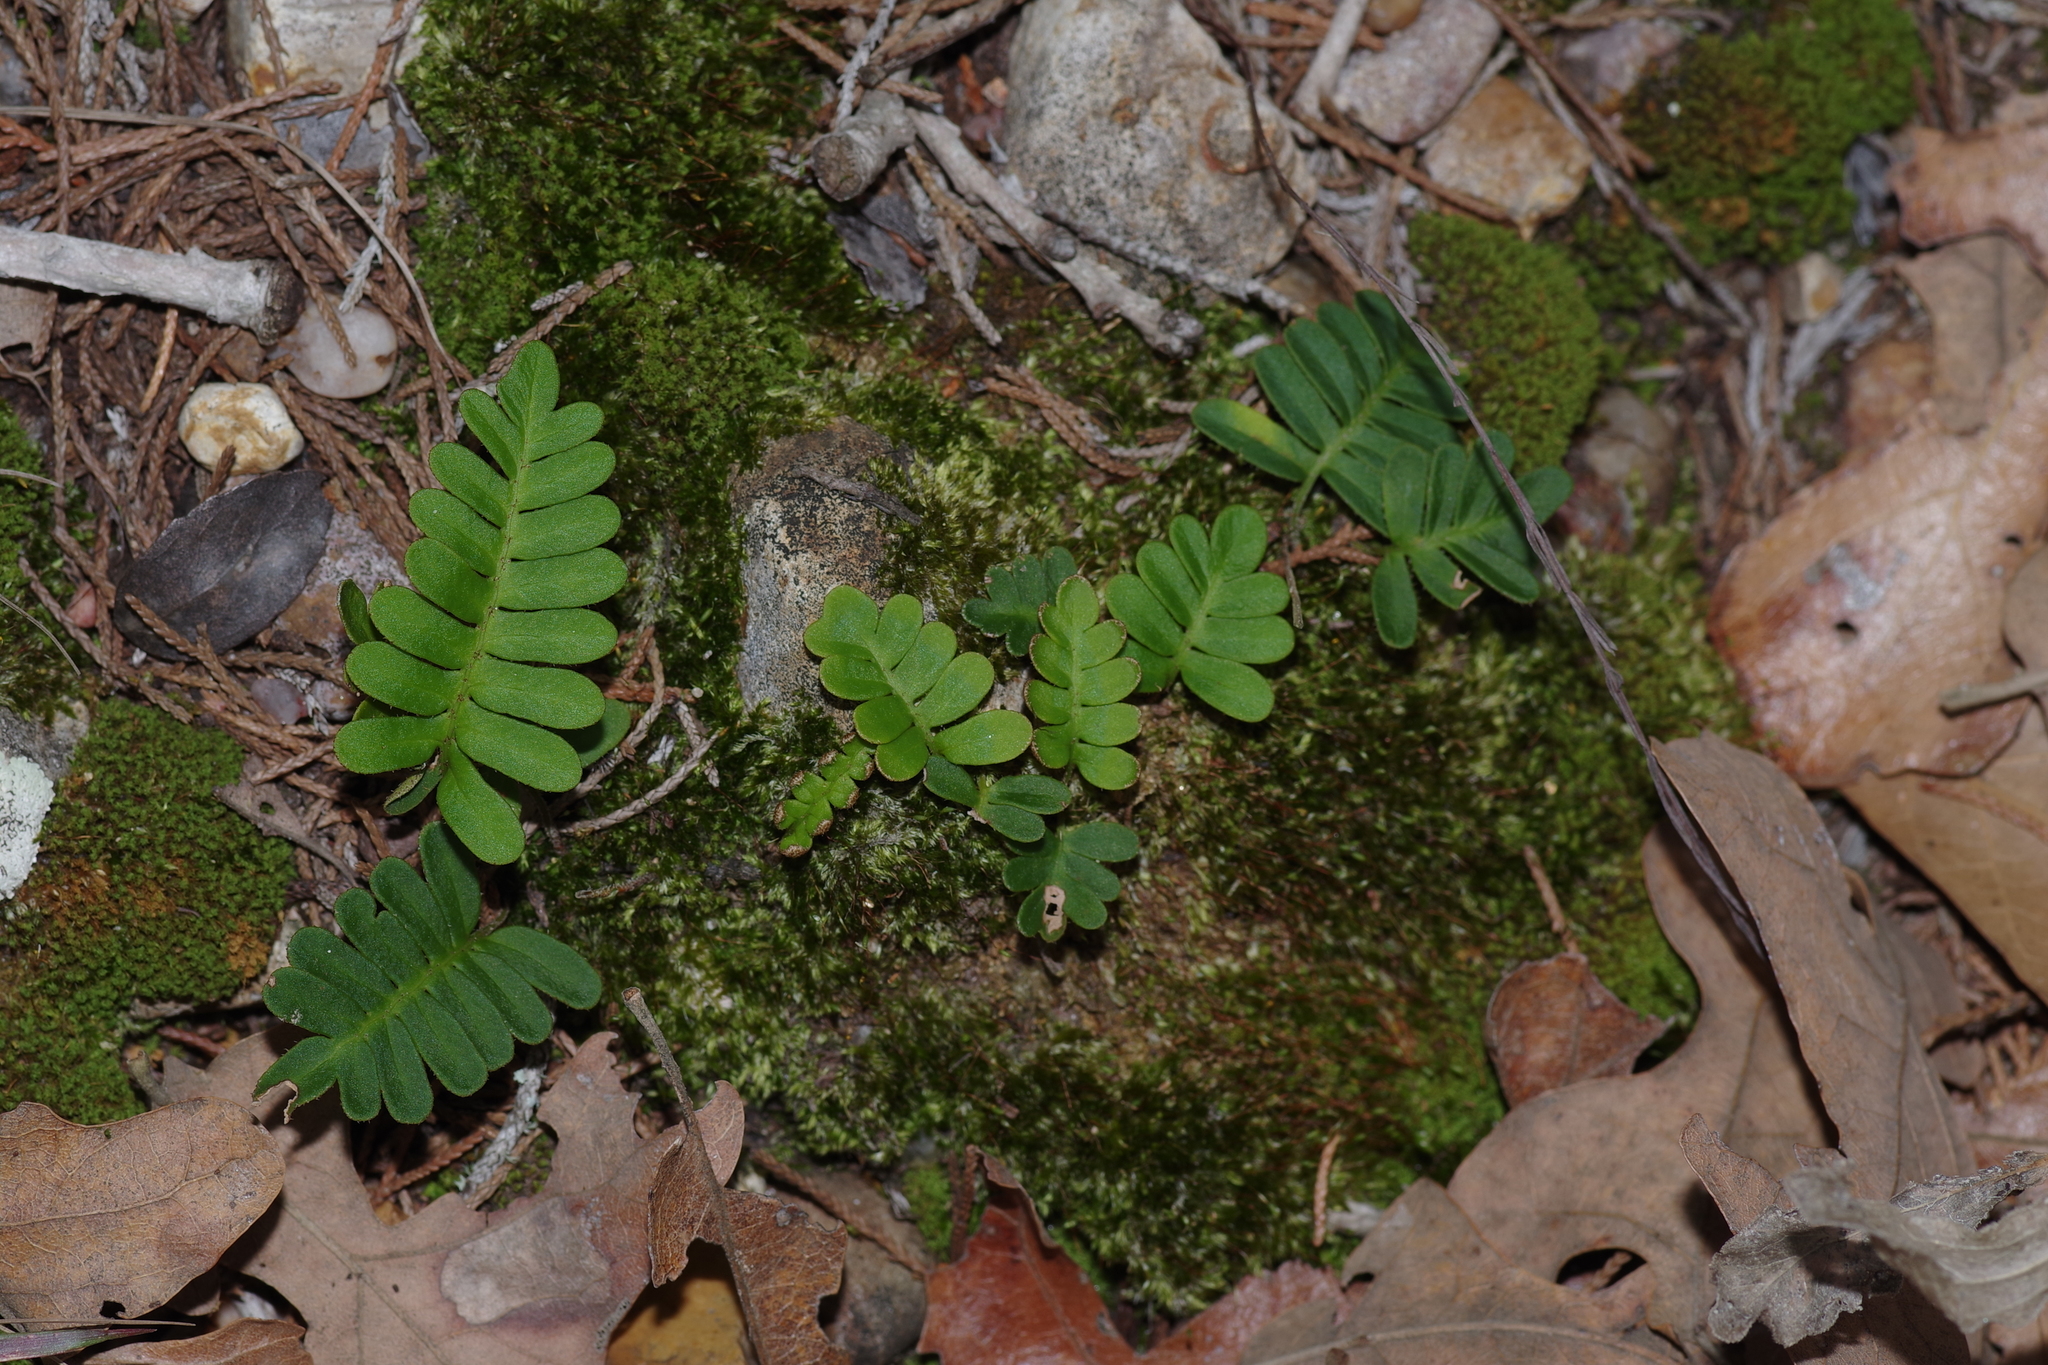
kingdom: Plantae
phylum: Tracheophyta
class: Polypodiopsida
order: Polypodiales
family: Polypodiaceae
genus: Pleopeltis
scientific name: Pleopeltis michauxiana
